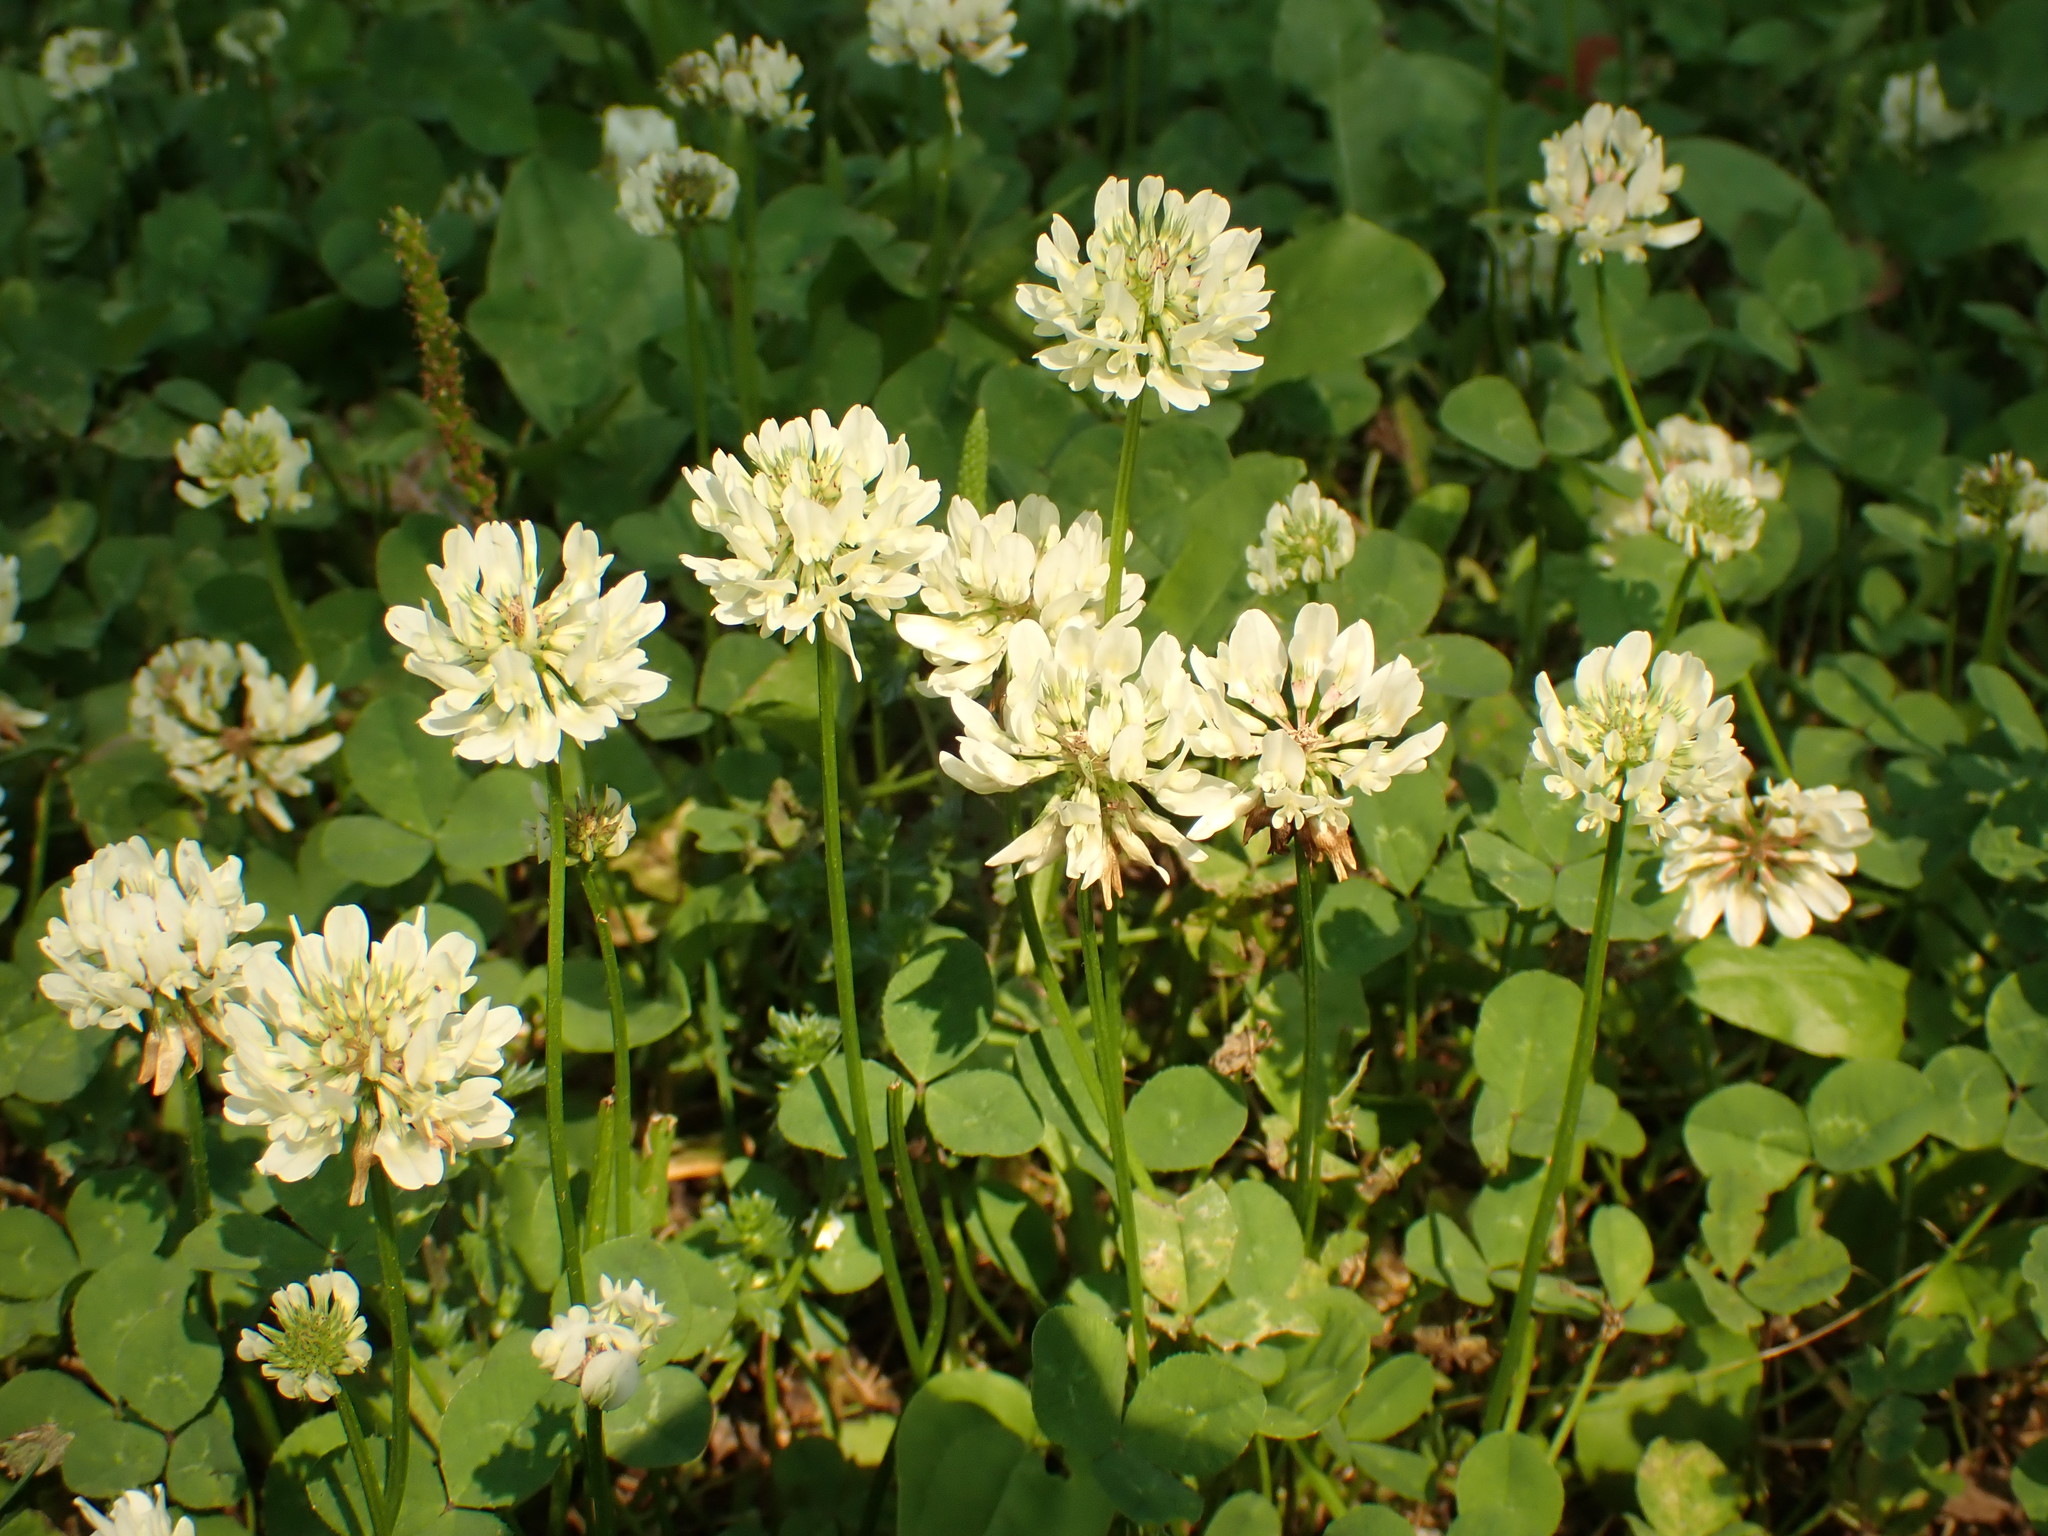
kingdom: Plantae
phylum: Tracheophyta
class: Magnoliopsida
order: Fabales
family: Fabaceae
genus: Trifolium
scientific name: Trifolium repens
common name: White clover
